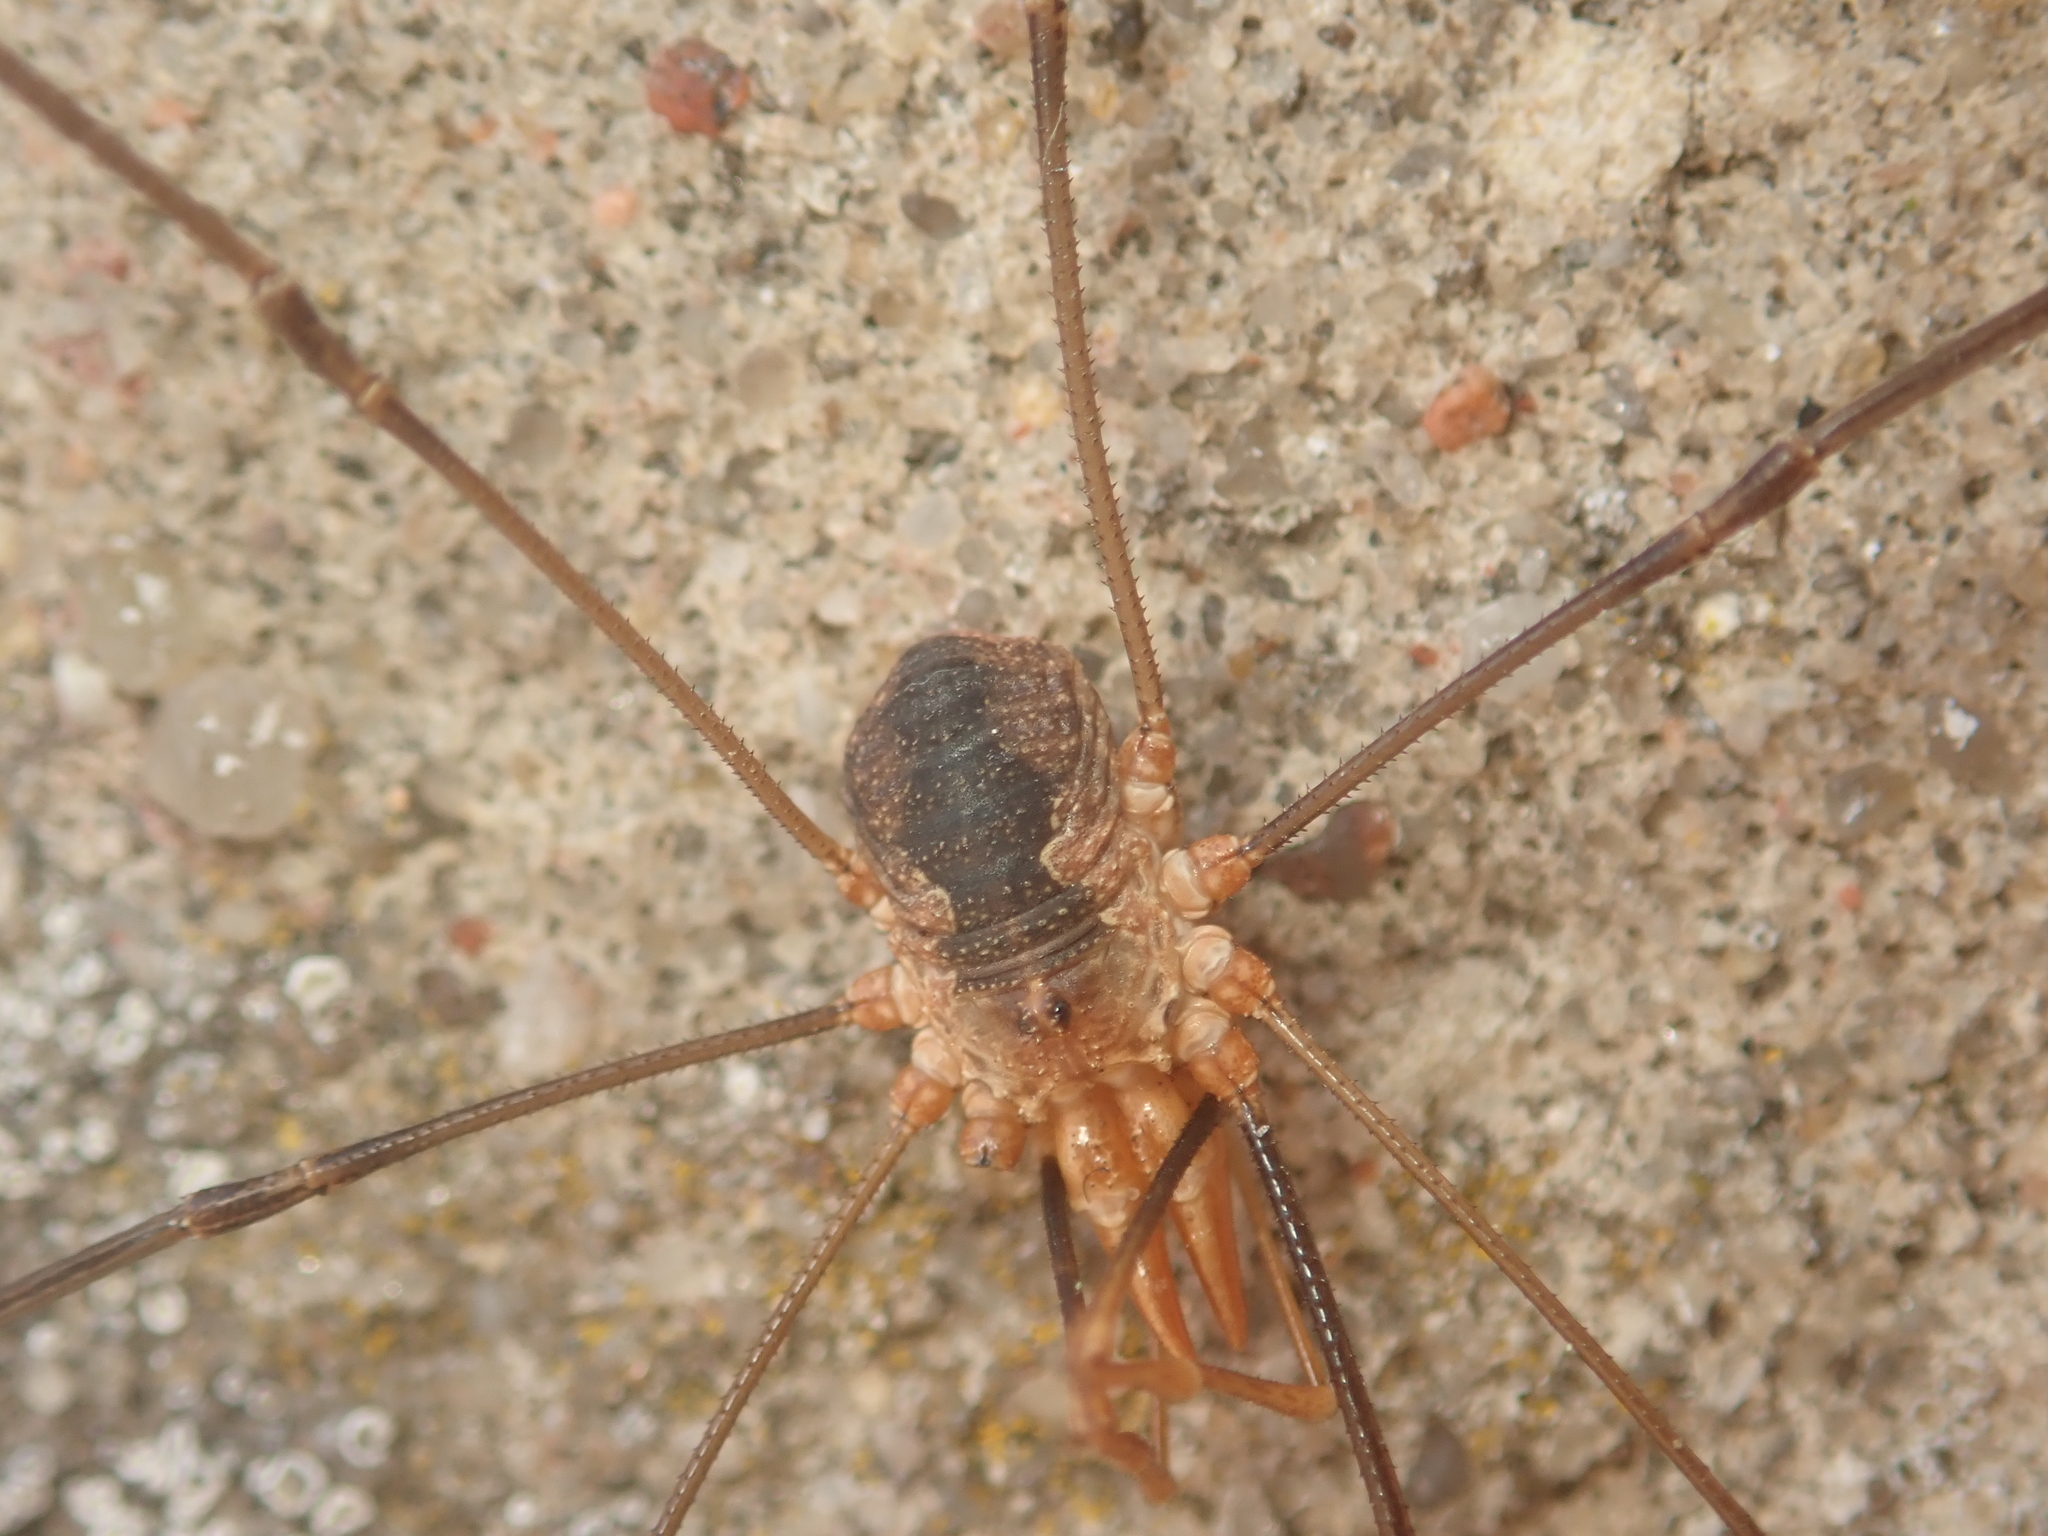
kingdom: Animalia
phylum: Arthropoda
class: Arachnida
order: Opiliones
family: Phalangiidae
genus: Phalangium
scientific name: Phalangium opilio
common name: Daddy longleg
